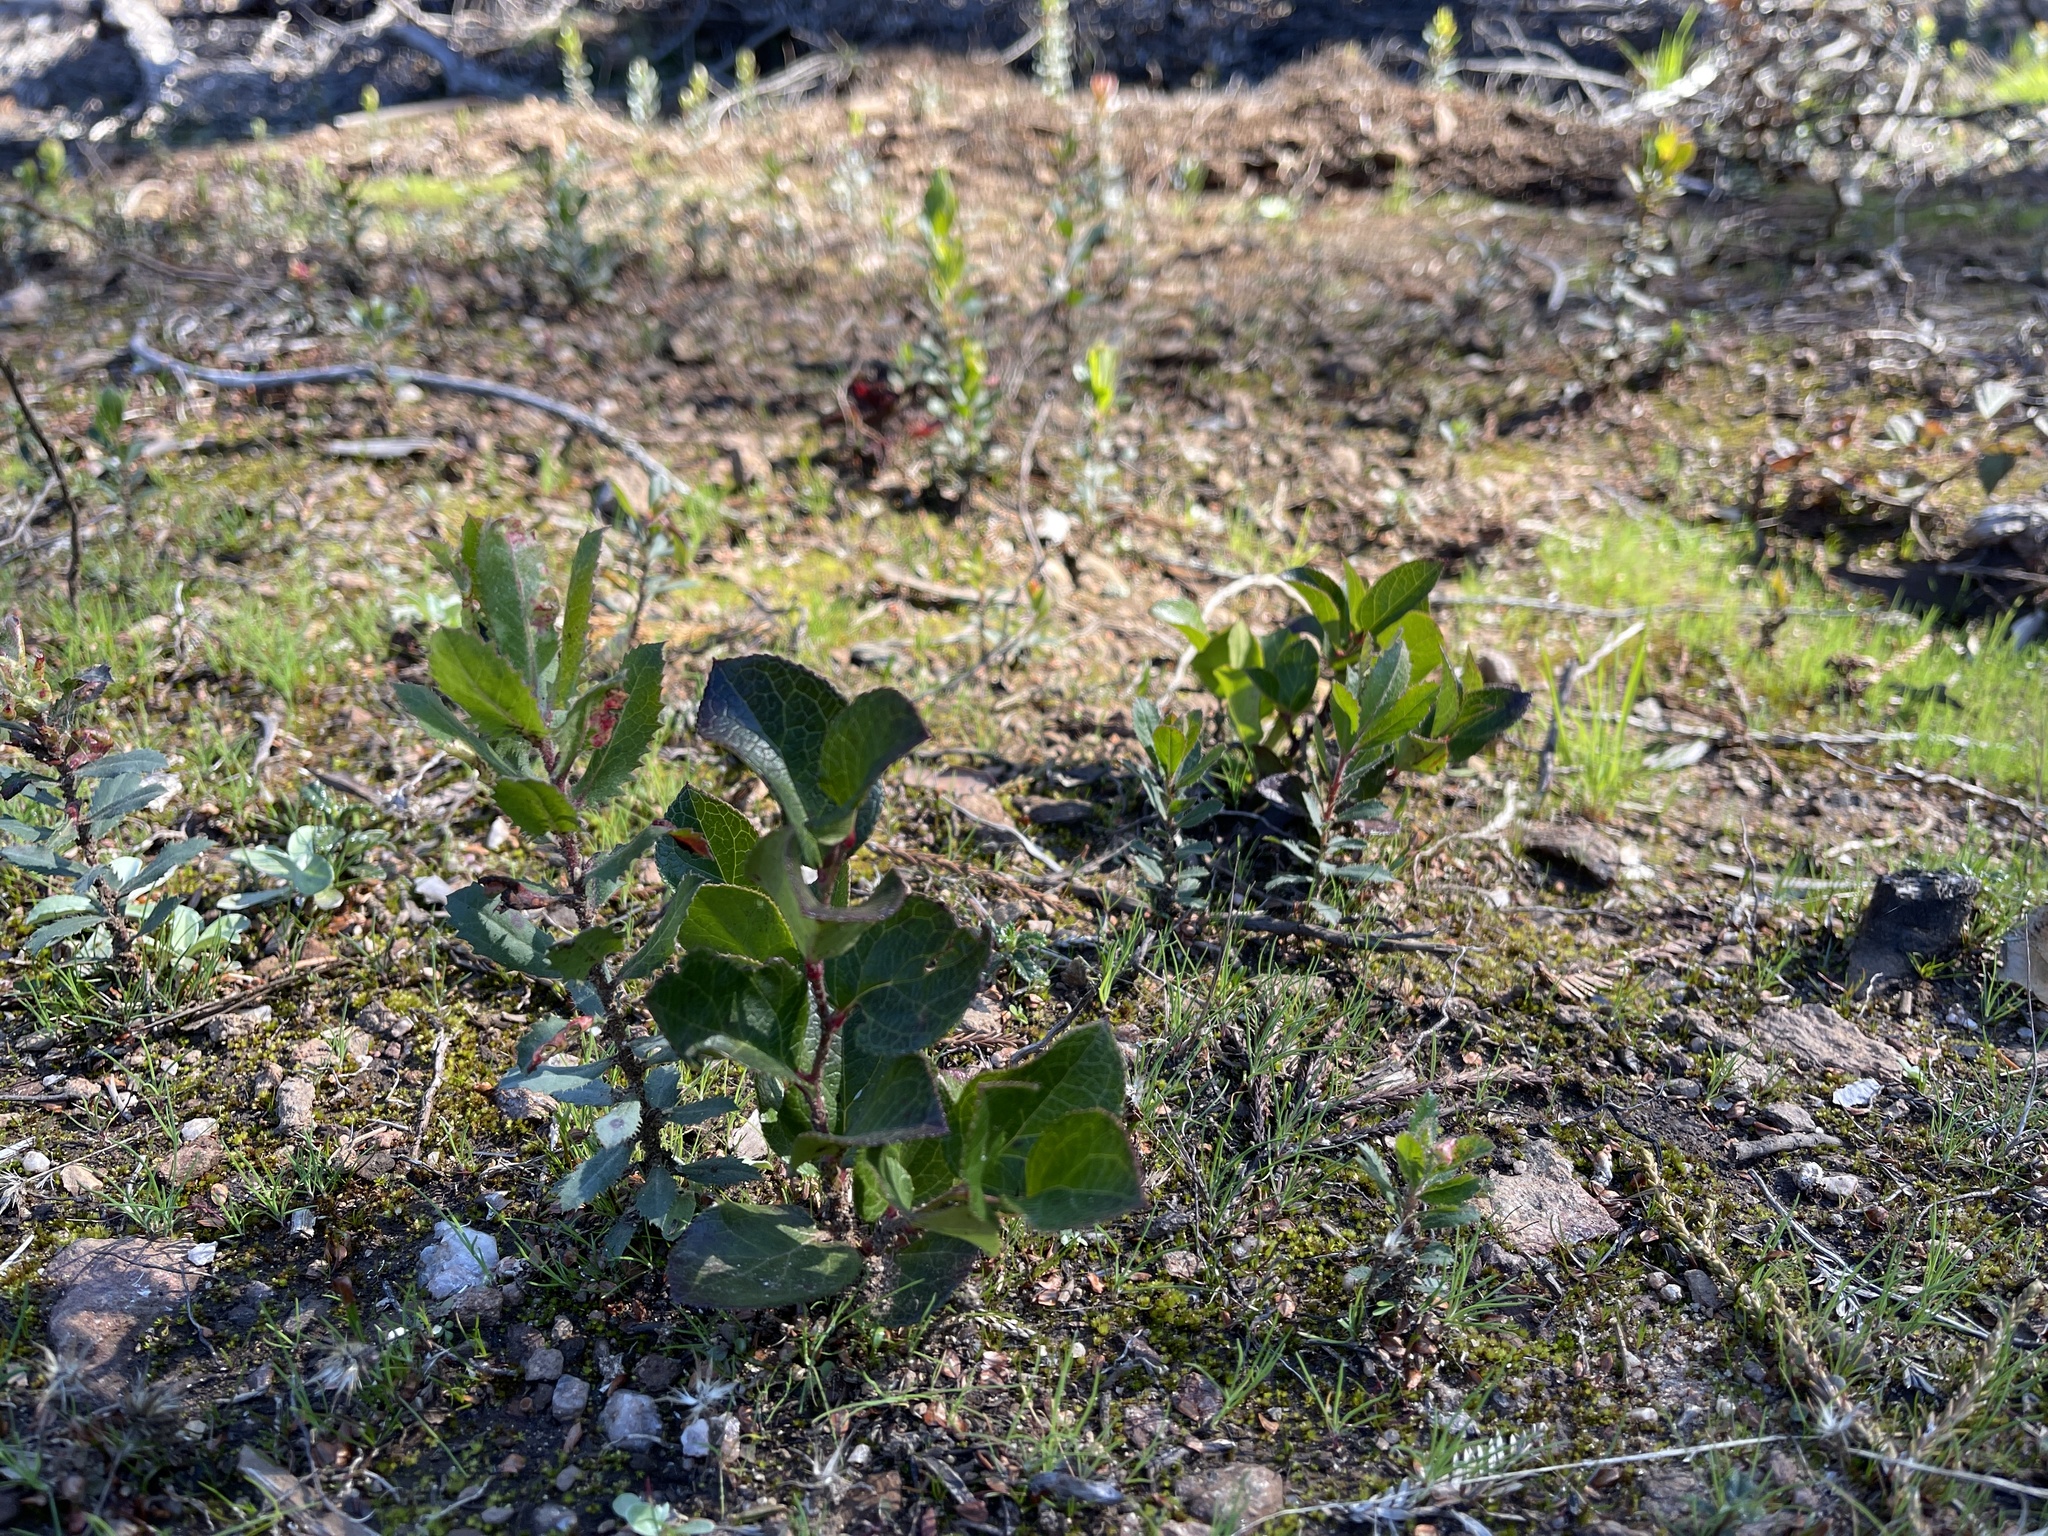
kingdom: Plantae
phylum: Tracheophyta
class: Magnoliopsida
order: Ericales
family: Ericaceae
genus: Gaultheria
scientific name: Gaultheria shallon
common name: Shallon
